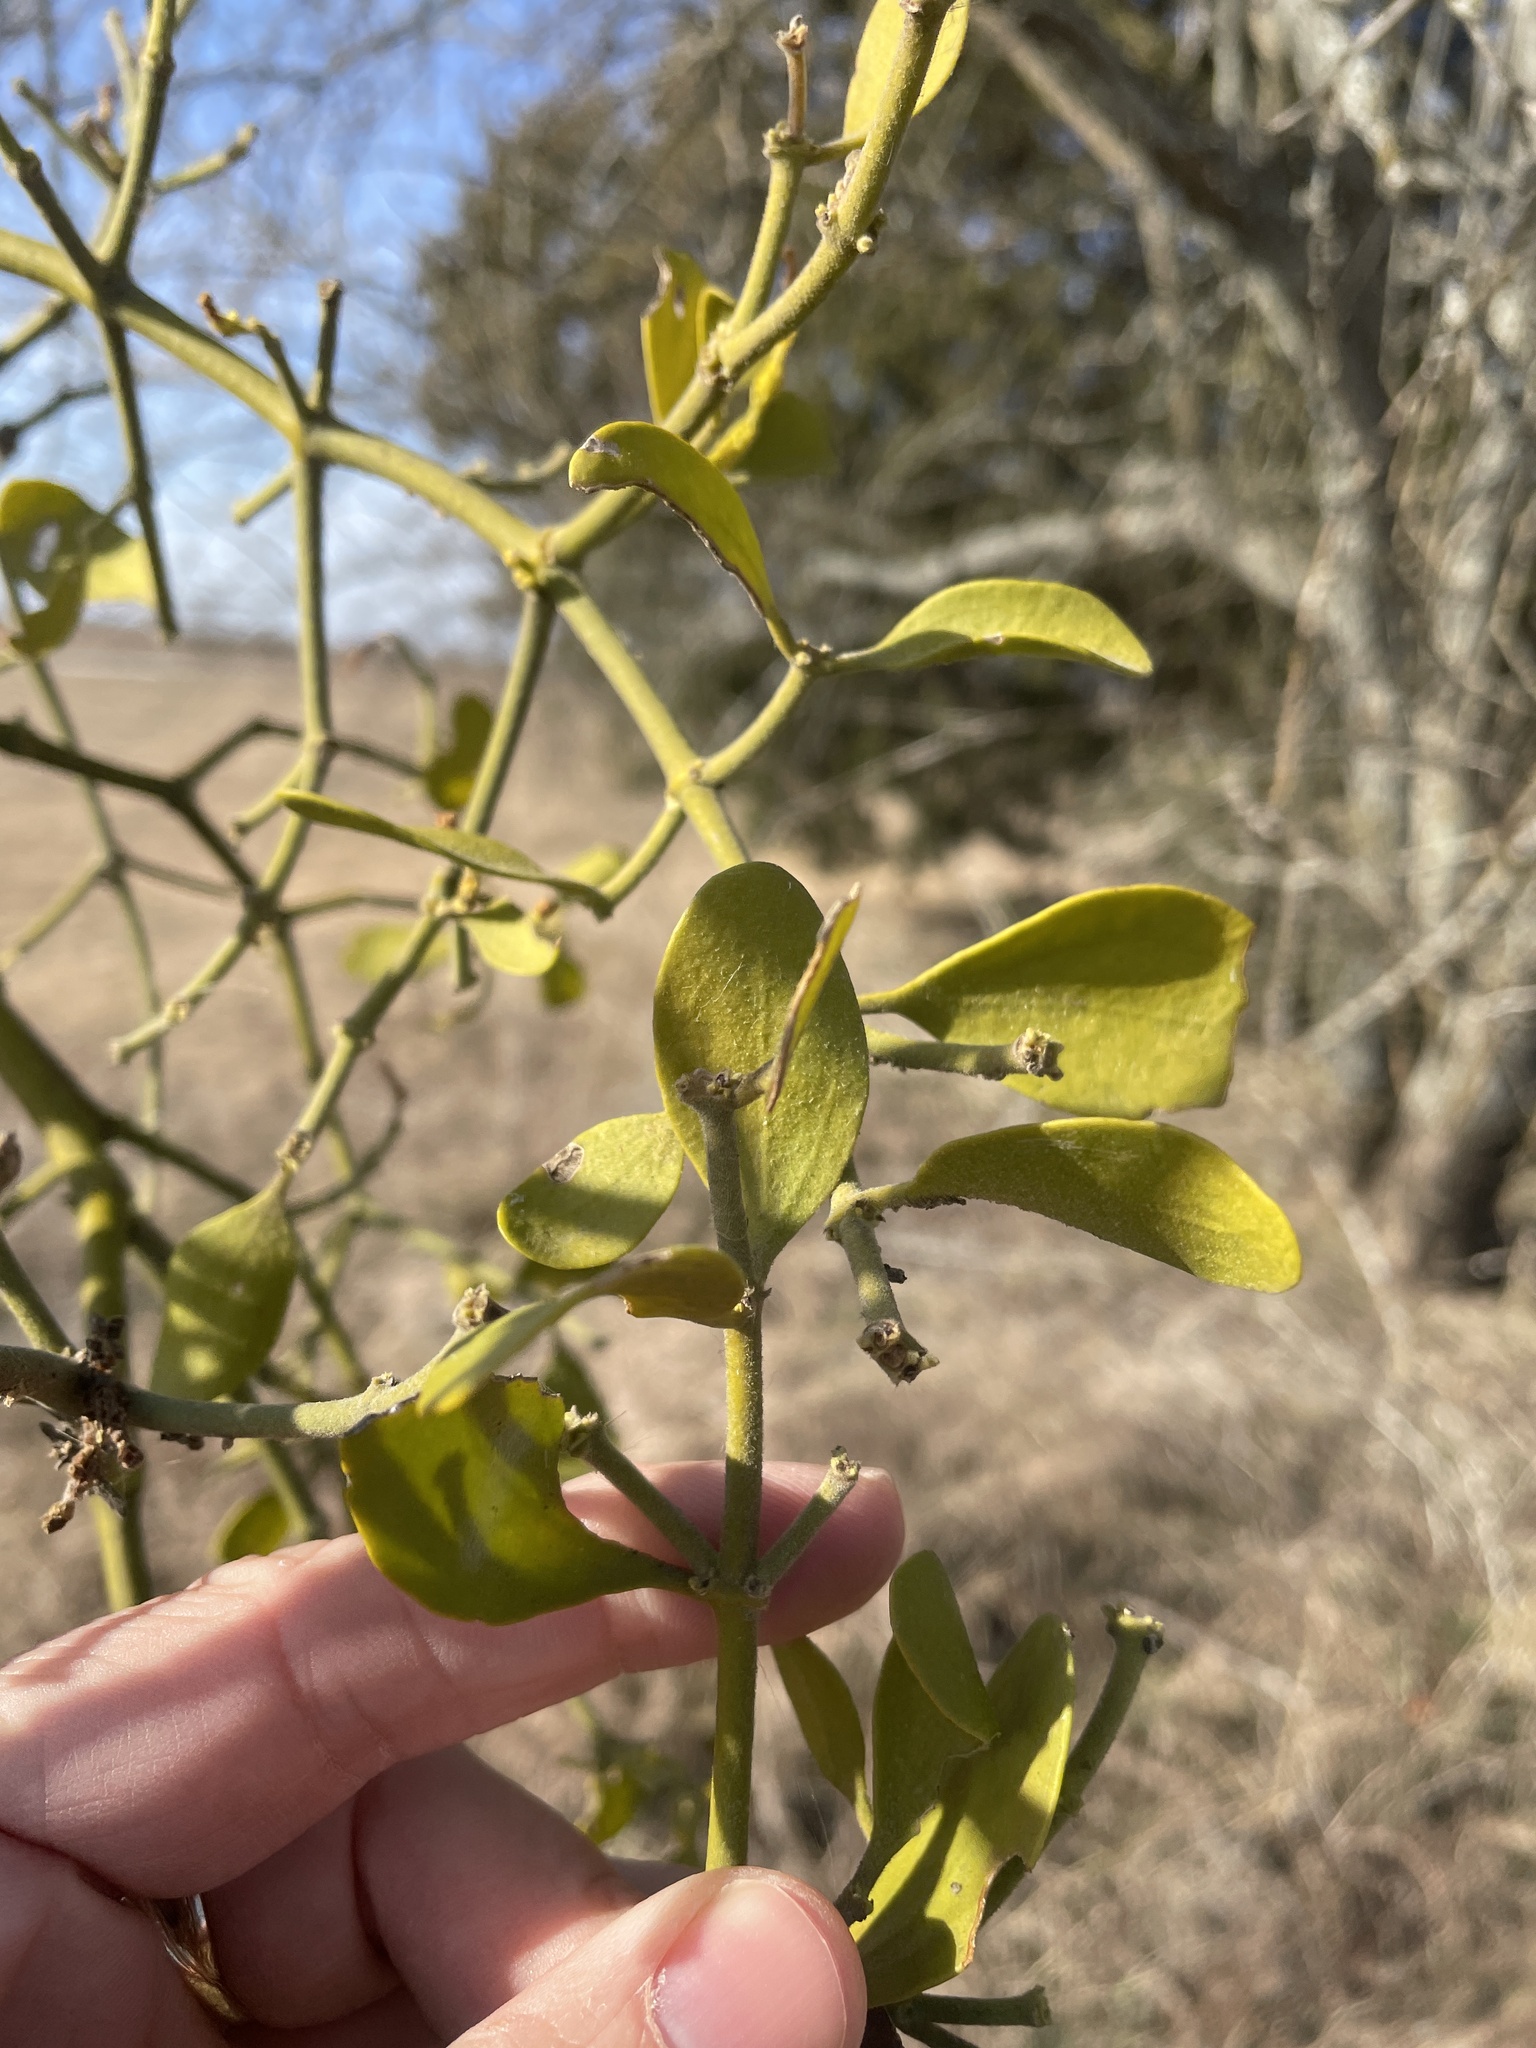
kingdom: Plantae
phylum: Tracheophyta
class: Magnoliopsida
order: Santalales
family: Viscaceae
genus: Phoradendron
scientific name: Phoradendron leucarpum
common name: Pacific mistletoe
